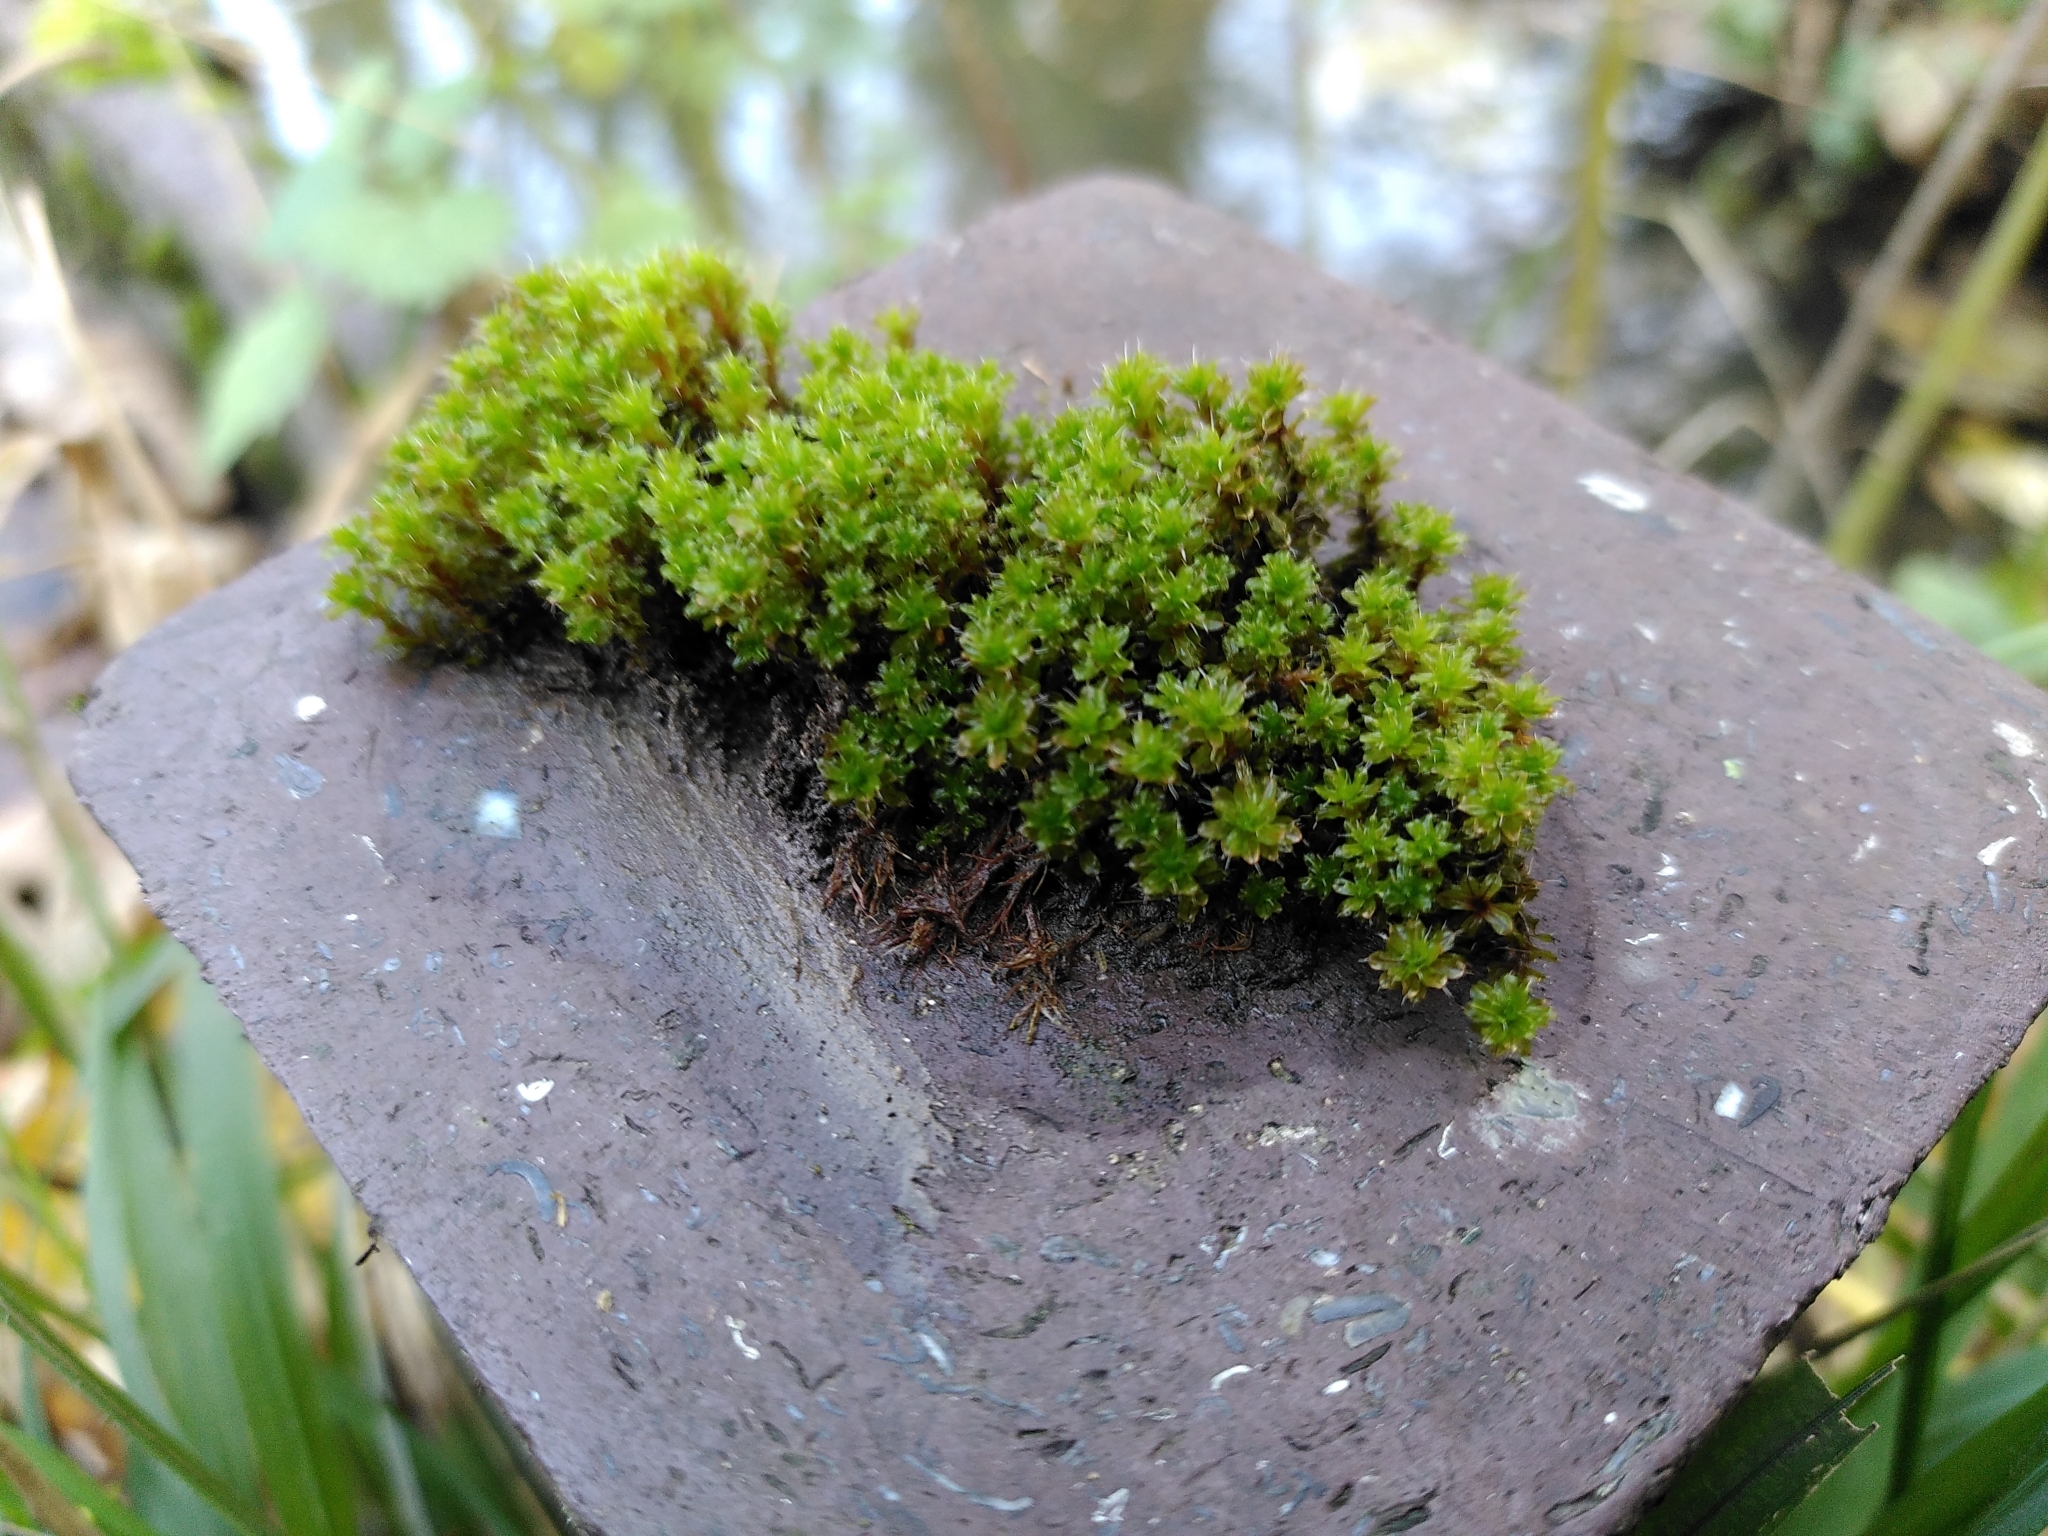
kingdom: Plantae
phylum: Bryophyta
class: Bryopsida
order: Pottiales
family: Pottiaceae
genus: Syntrichia
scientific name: Syntrichia montana
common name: Intermediate screw-moss
